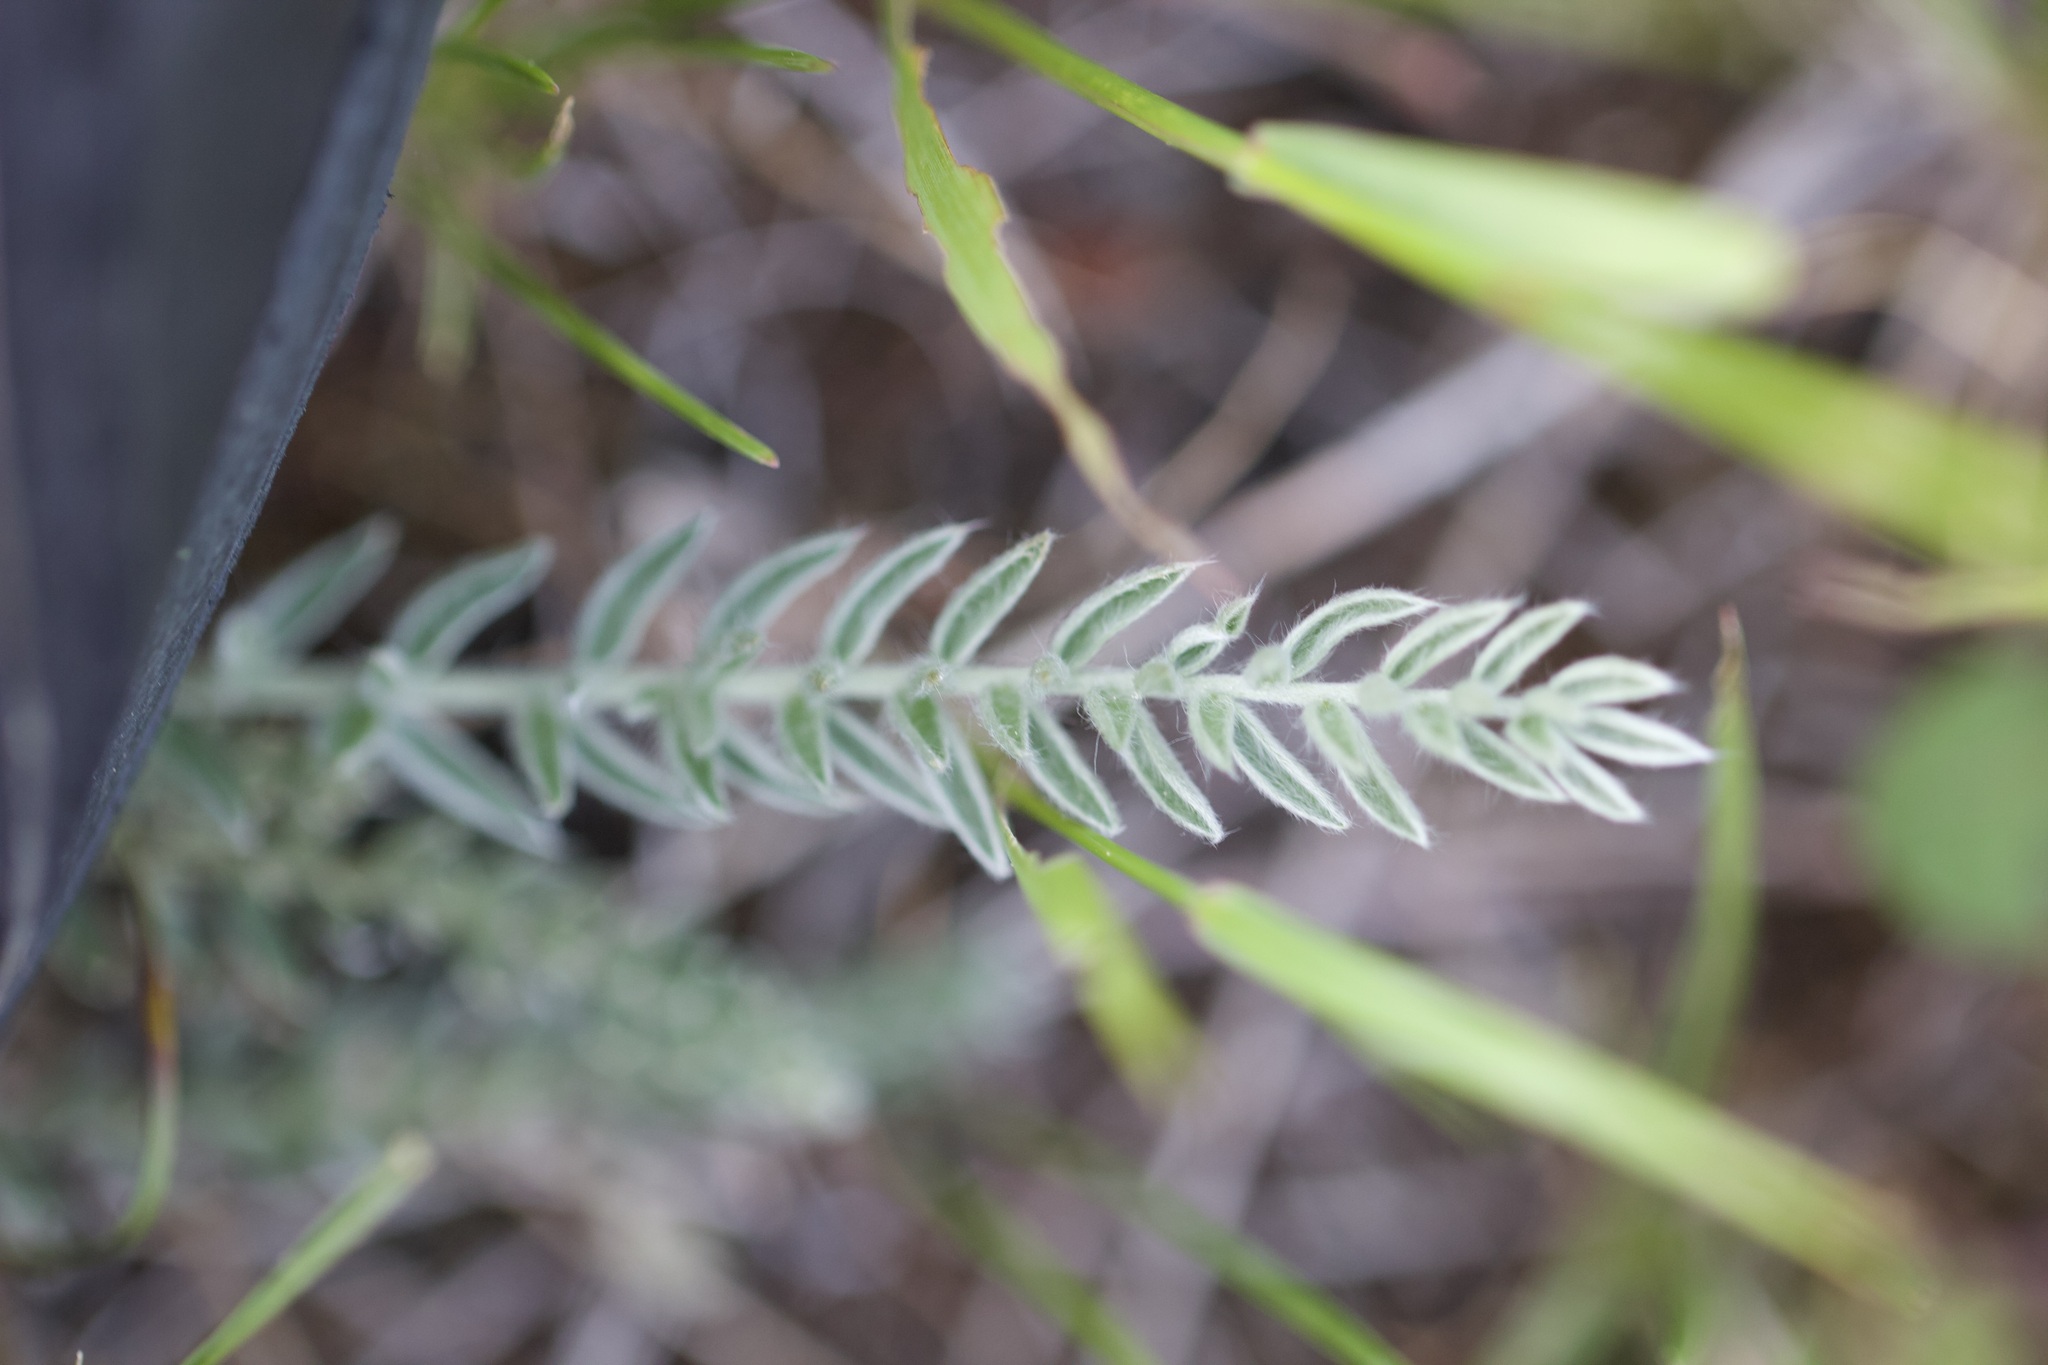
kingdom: Plantae
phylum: Tracheophyta
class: Magnoliopsida
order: Fabales
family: Fabaceae
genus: Oxytropis
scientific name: Oxytropis splendens
